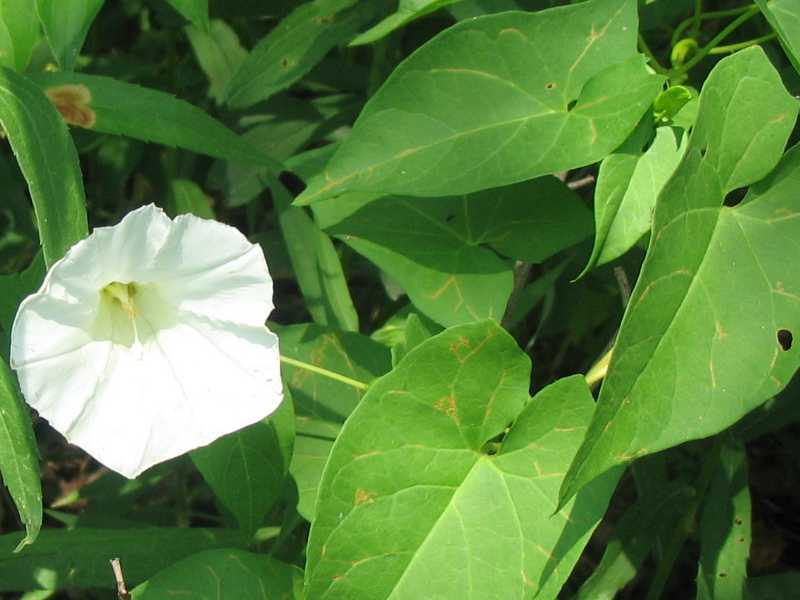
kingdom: Plantae
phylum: Tracheophyta
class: Magnoliopsida
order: Solanales
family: Convolvulaceae
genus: Calystegia
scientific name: Calystegia sepium
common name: Hedge bindweed
